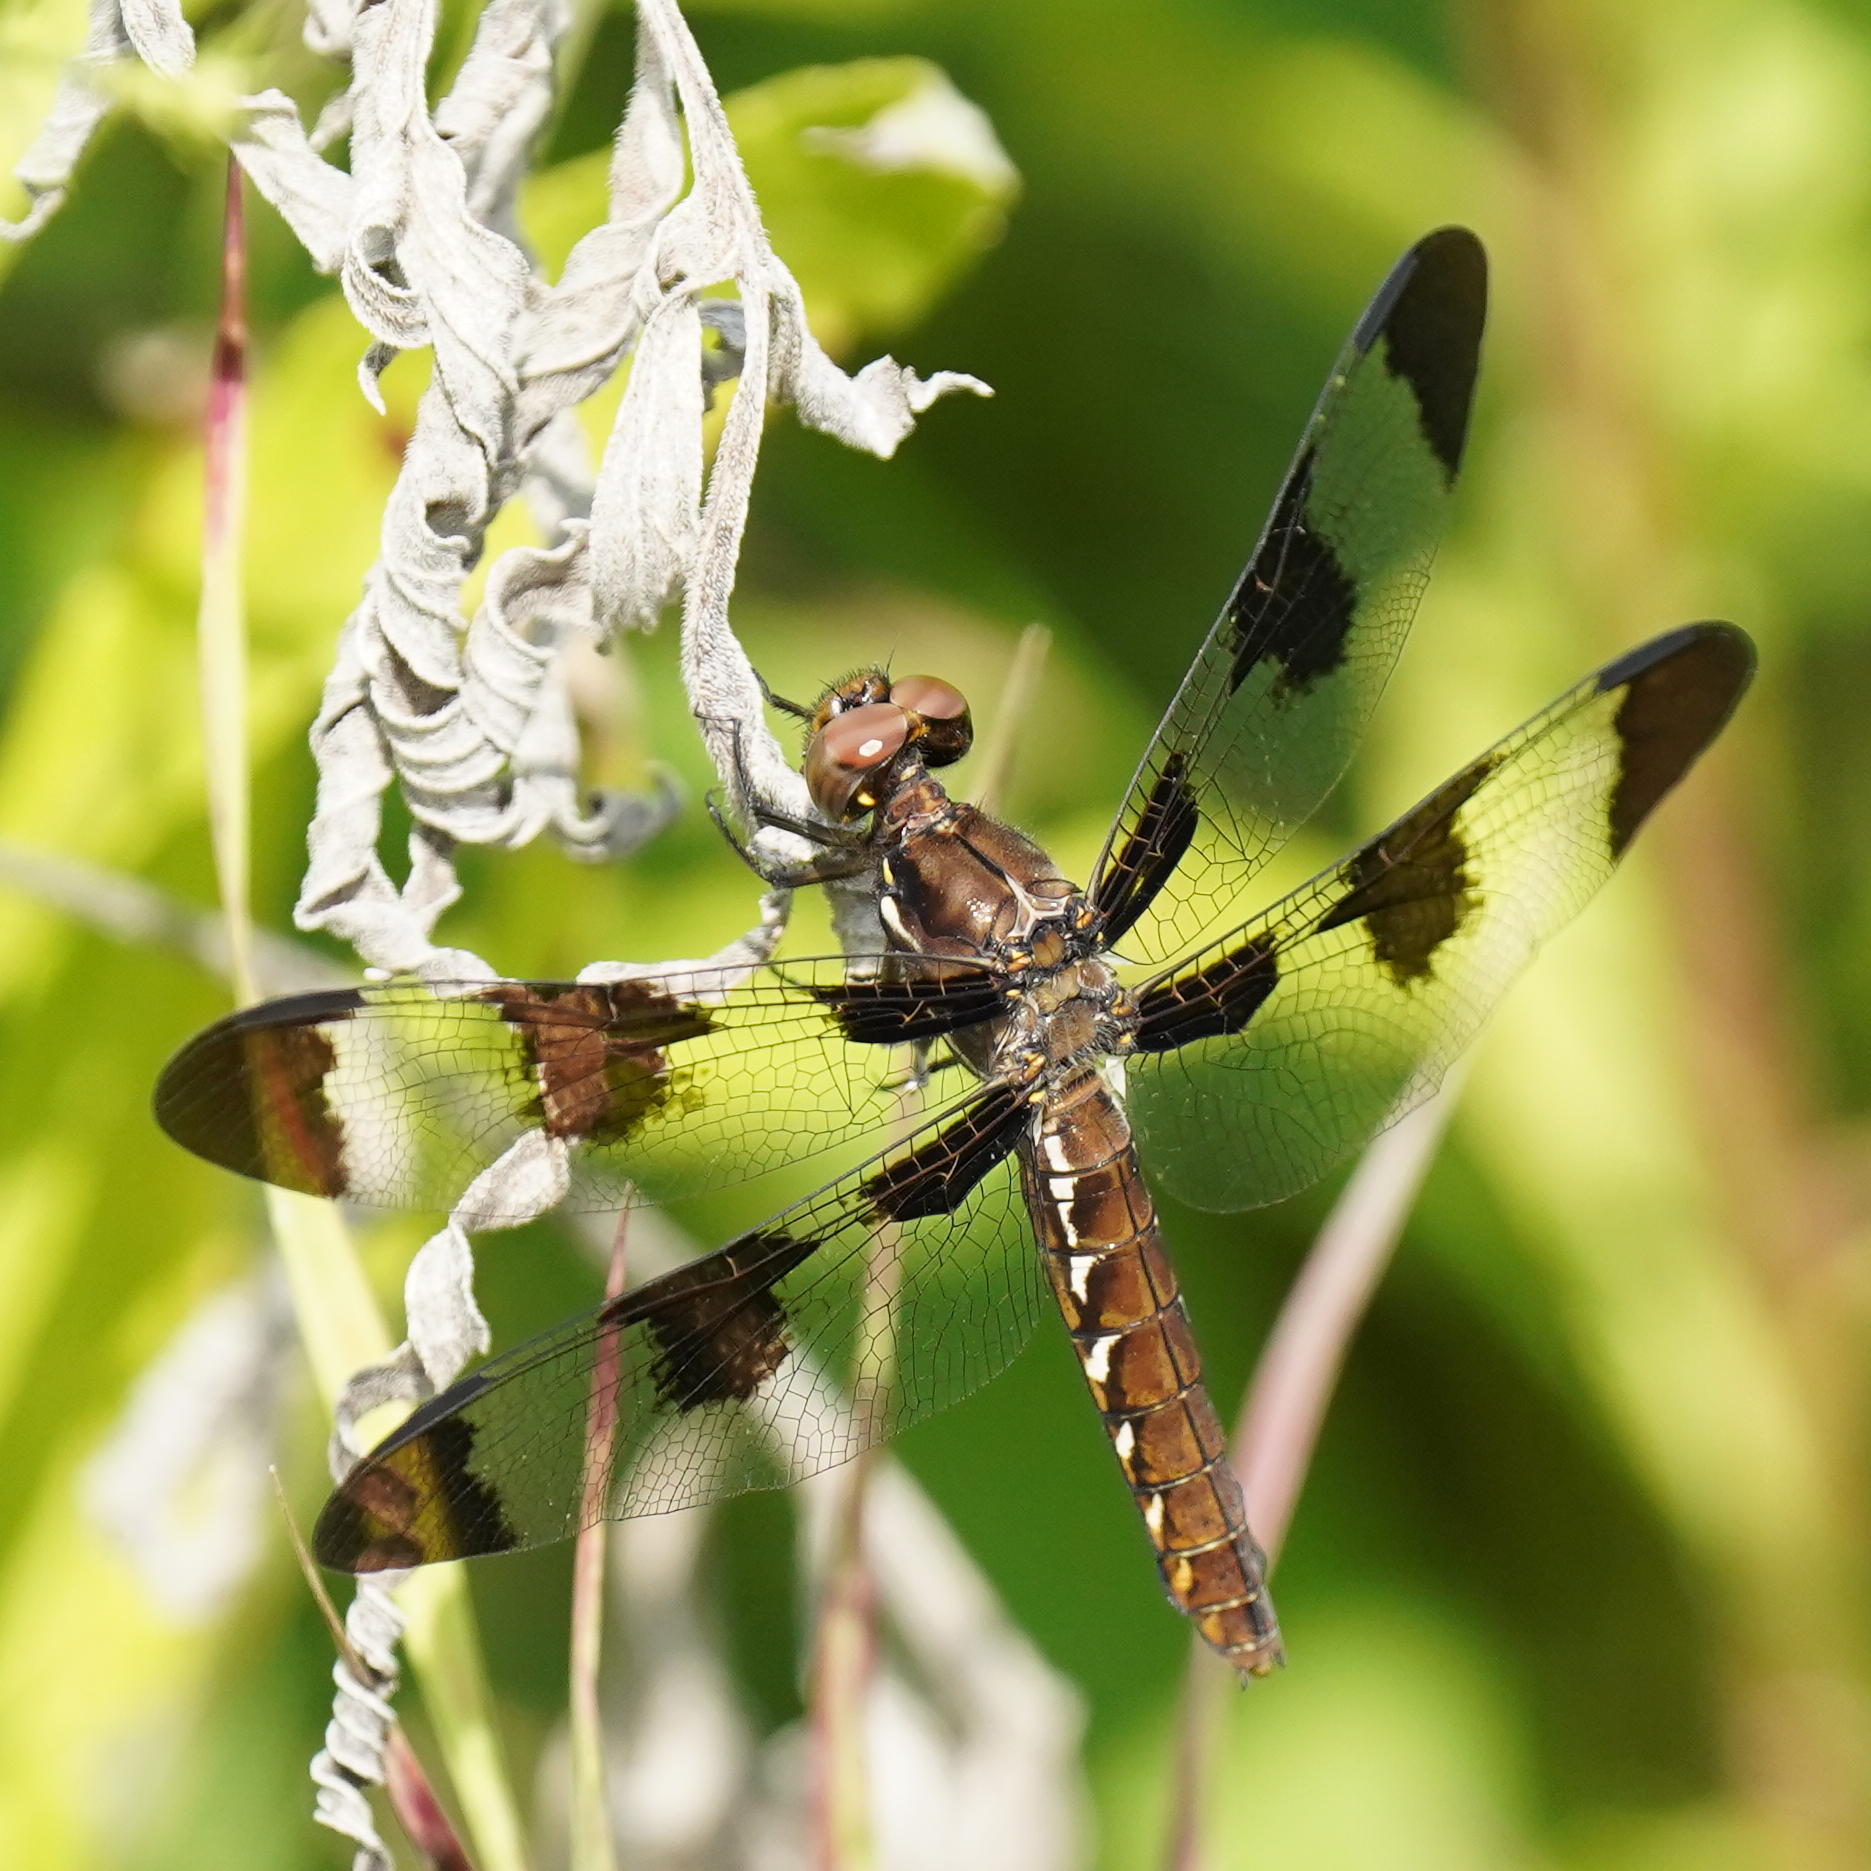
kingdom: Animalia
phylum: Arthropoda
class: Insecta
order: Odonata
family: Libellulidae
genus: Plathemis
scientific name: Plathemis lydia
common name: Common whitetail
